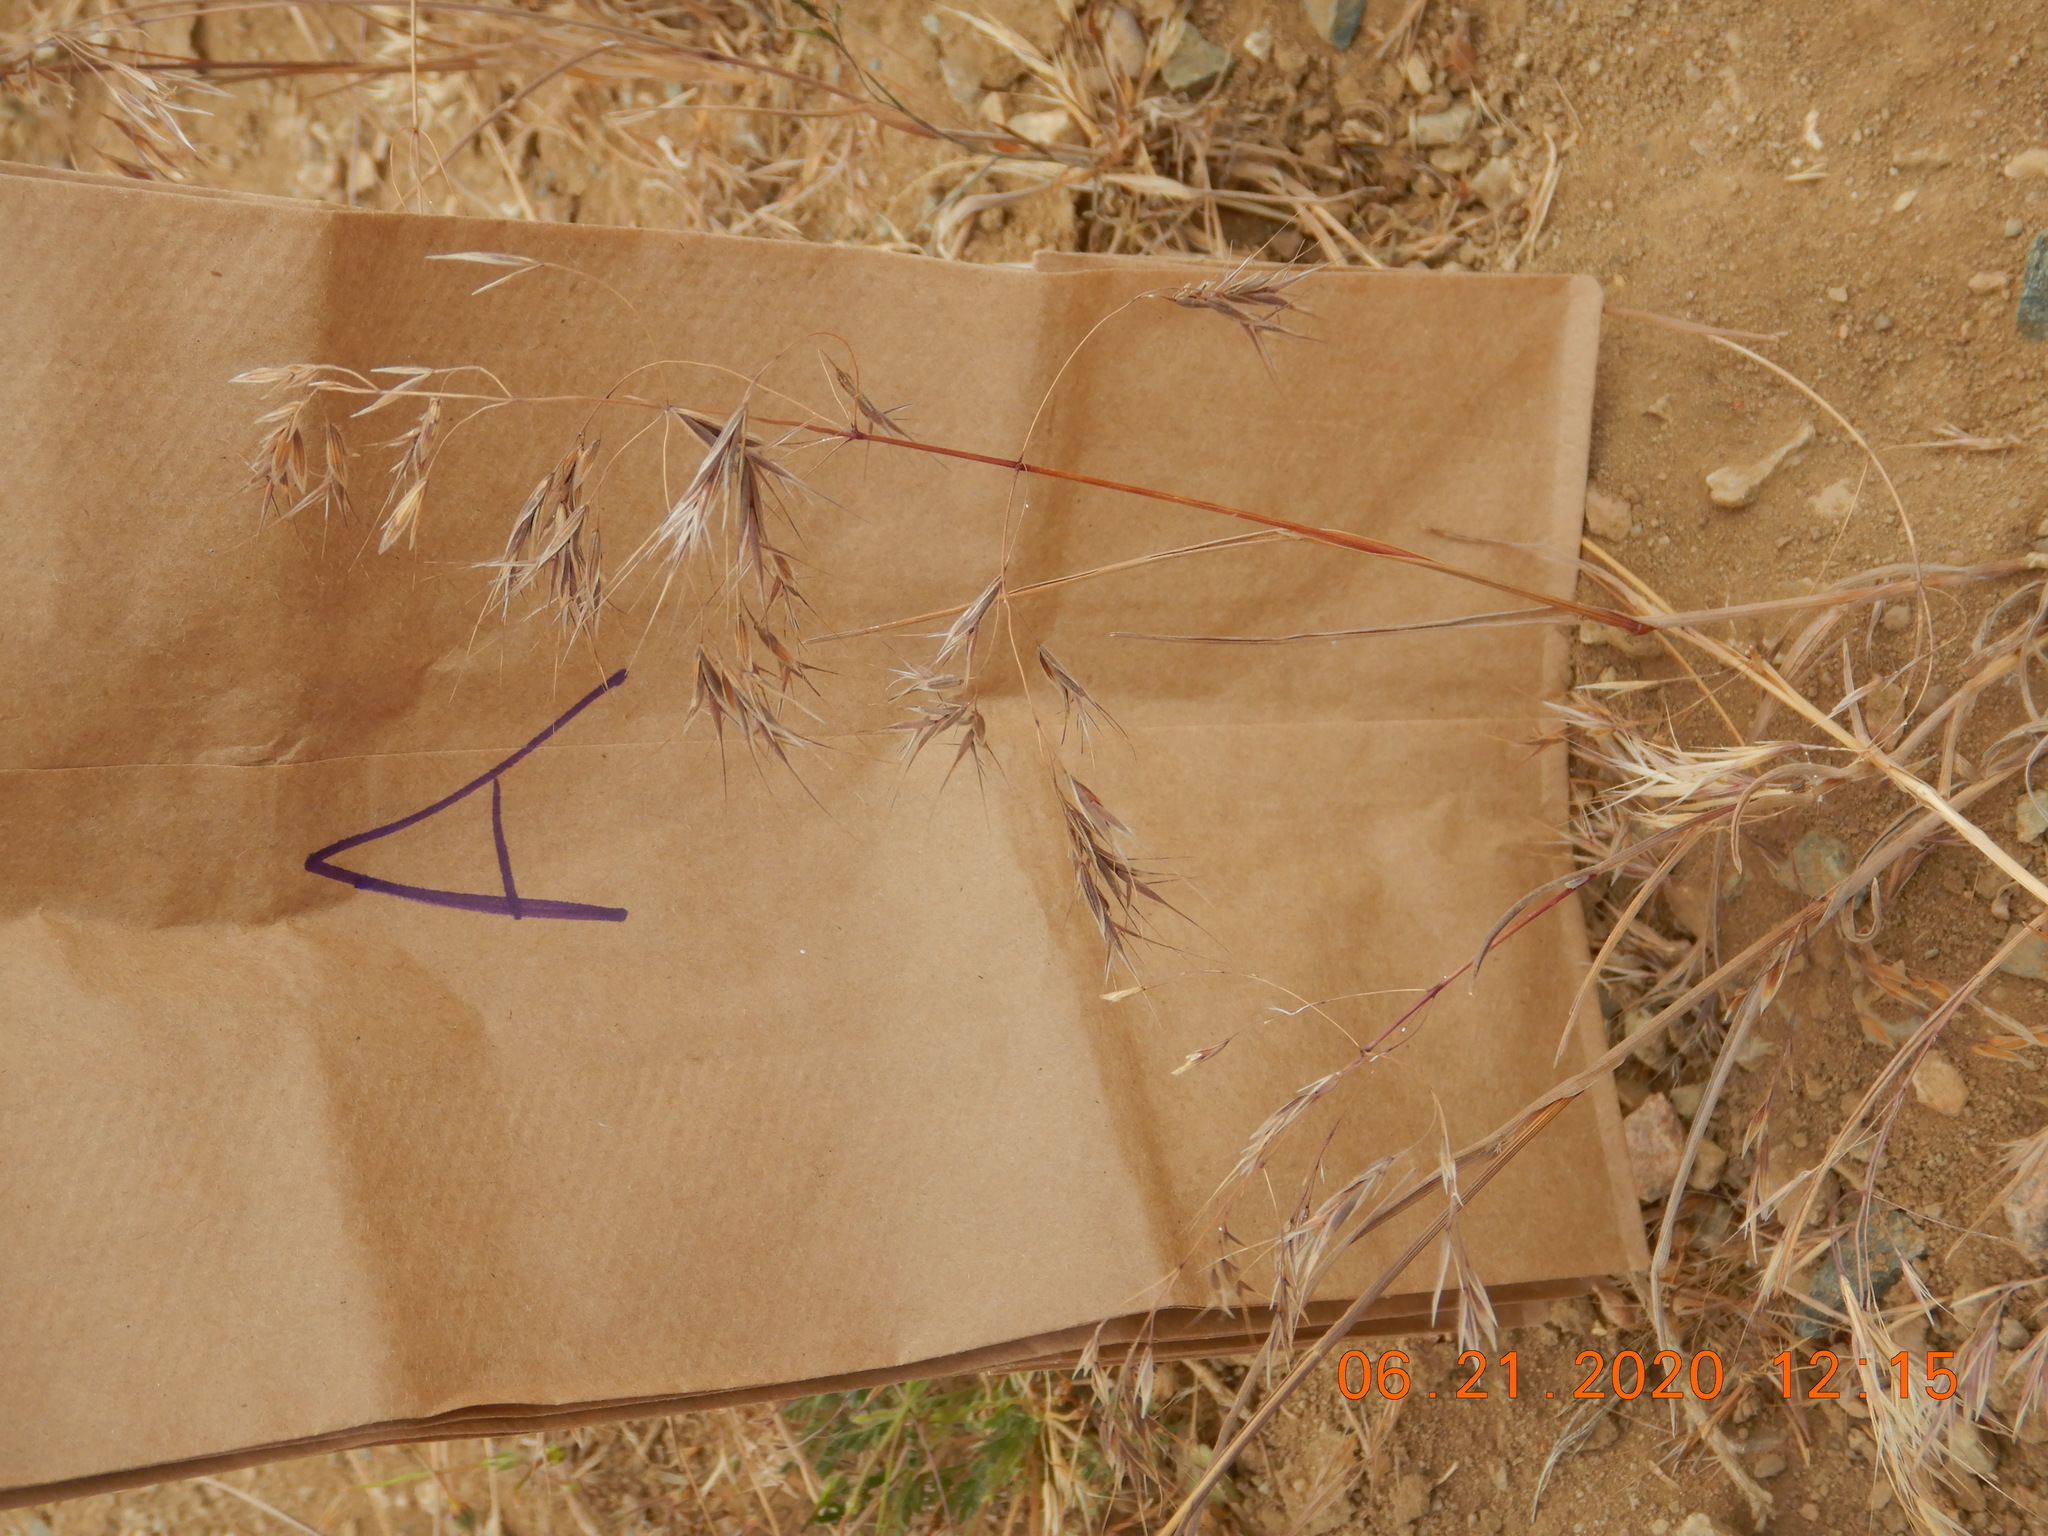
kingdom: Plantae
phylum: Tracheophyta
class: Liliopsida
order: Poales
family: Poaceae
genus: Bromus
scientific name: Bromus tectorum
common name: Cheatgrass
